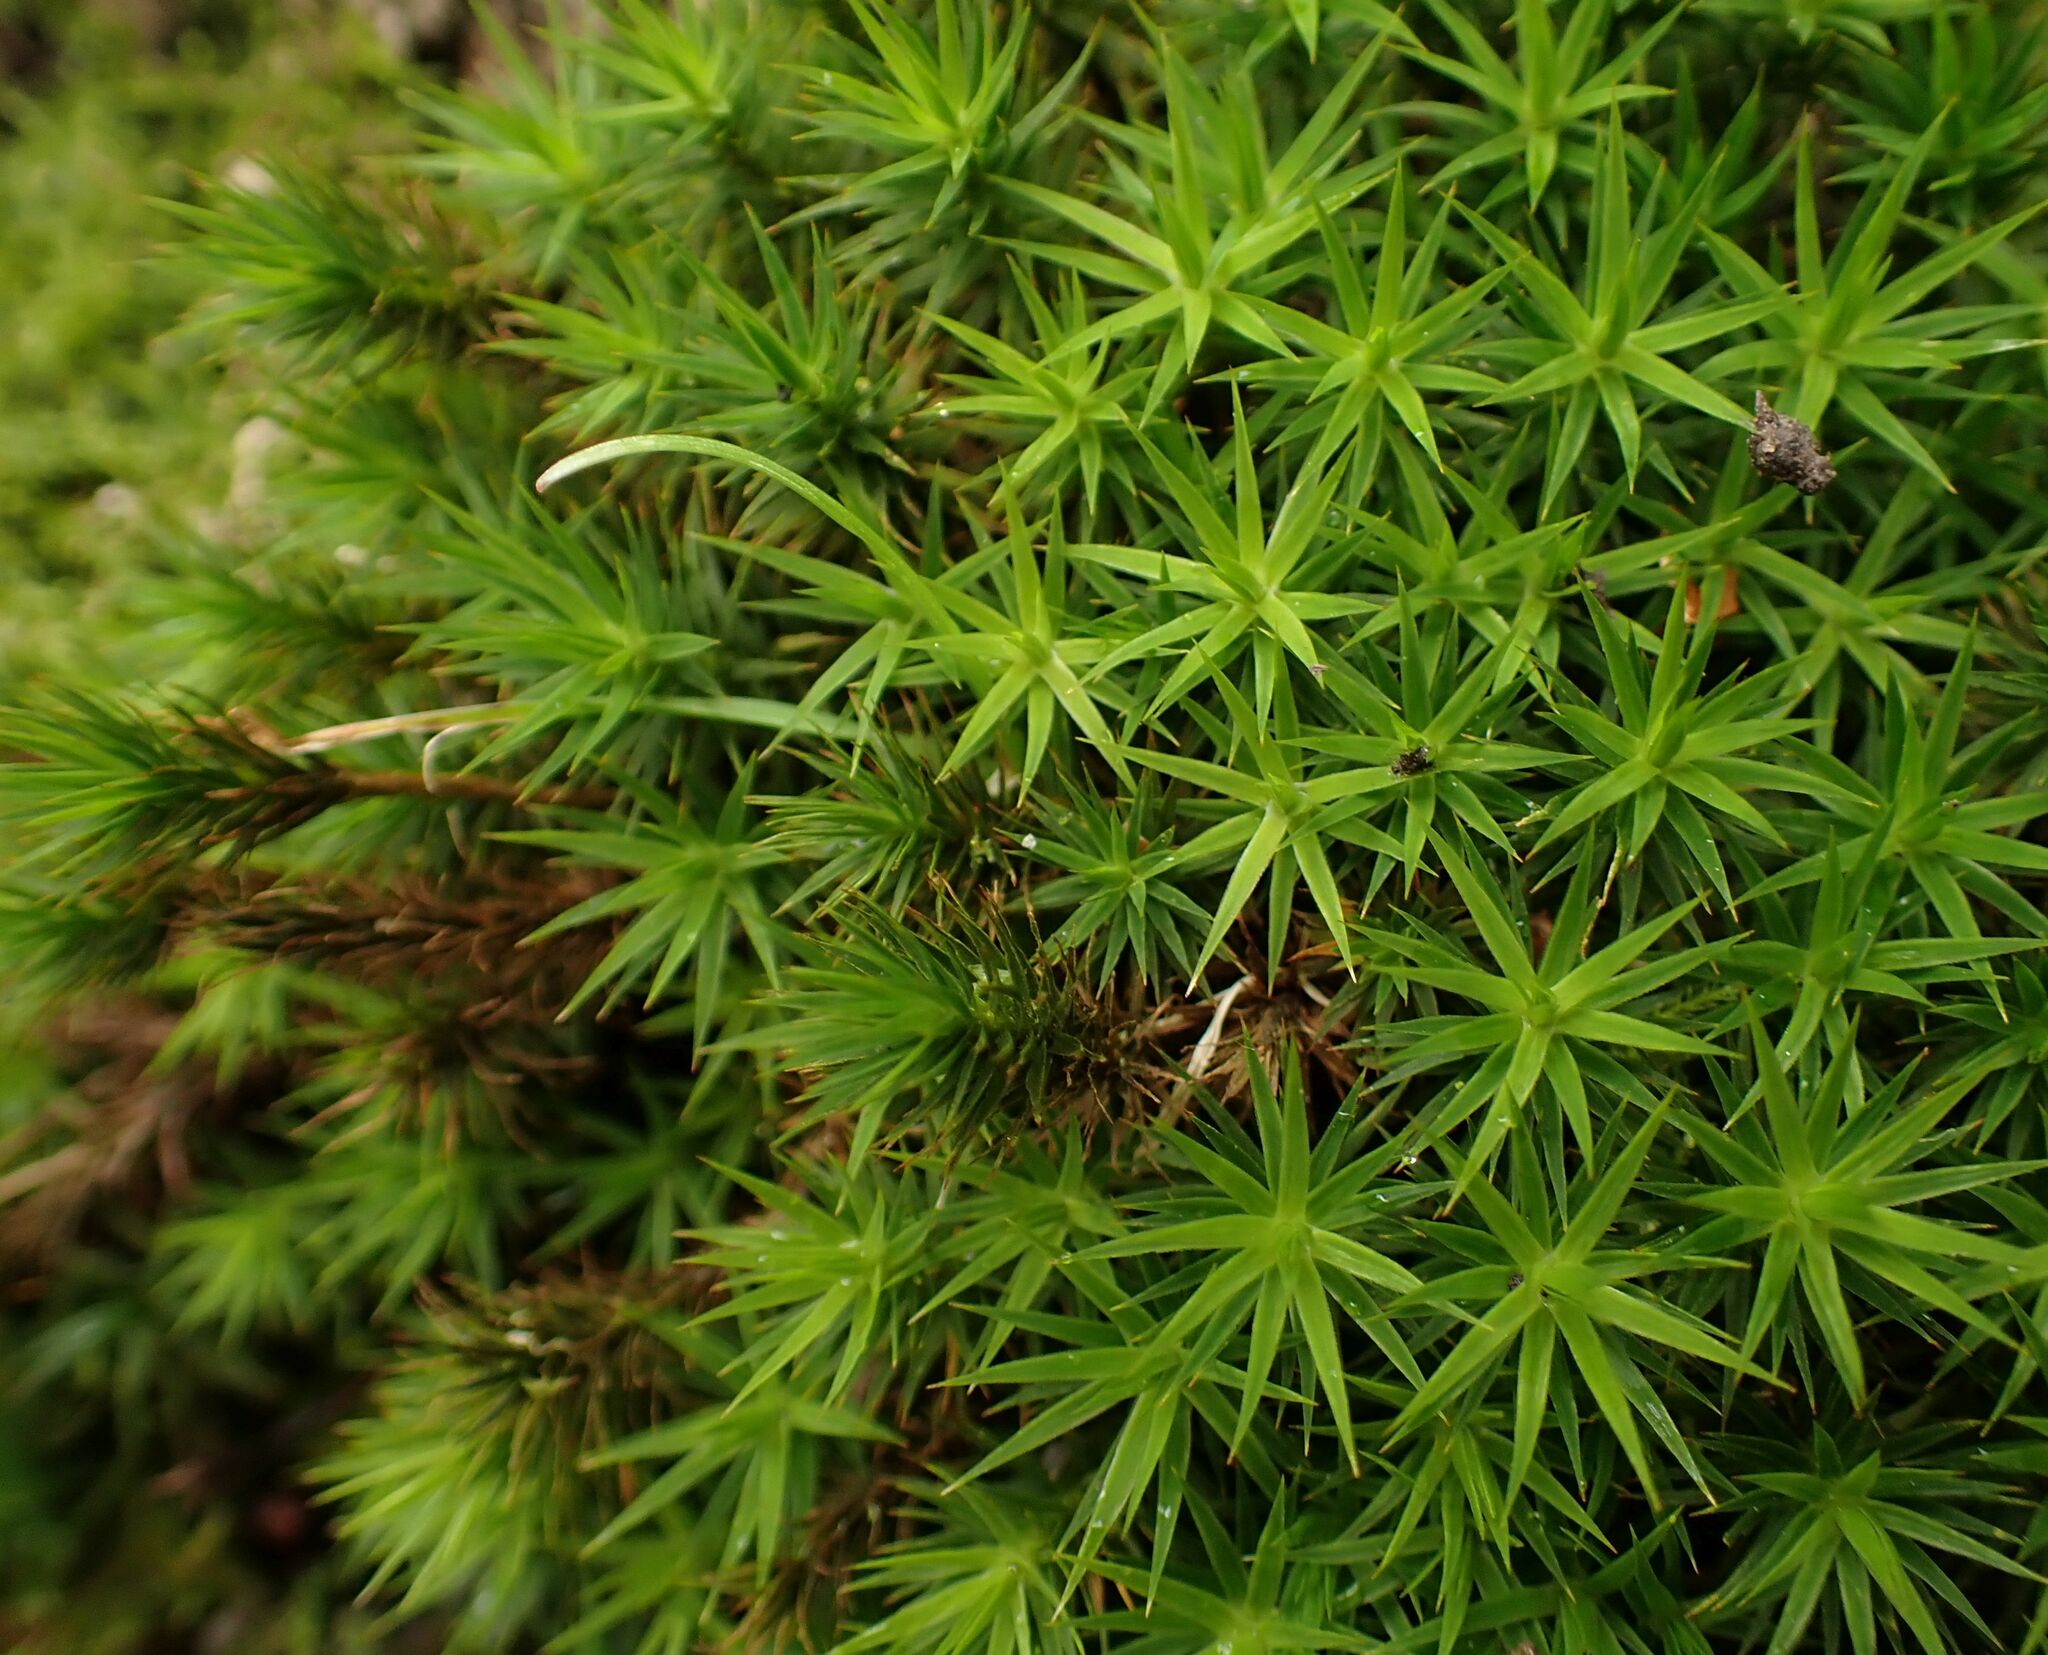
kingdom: Plantae
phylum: Bryophyta
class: Polytrichopsida
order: Polytrichales
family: Polytrichaceae
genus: Polytrichum
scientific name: Polytrichum formosum
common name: Bank haircap moss
